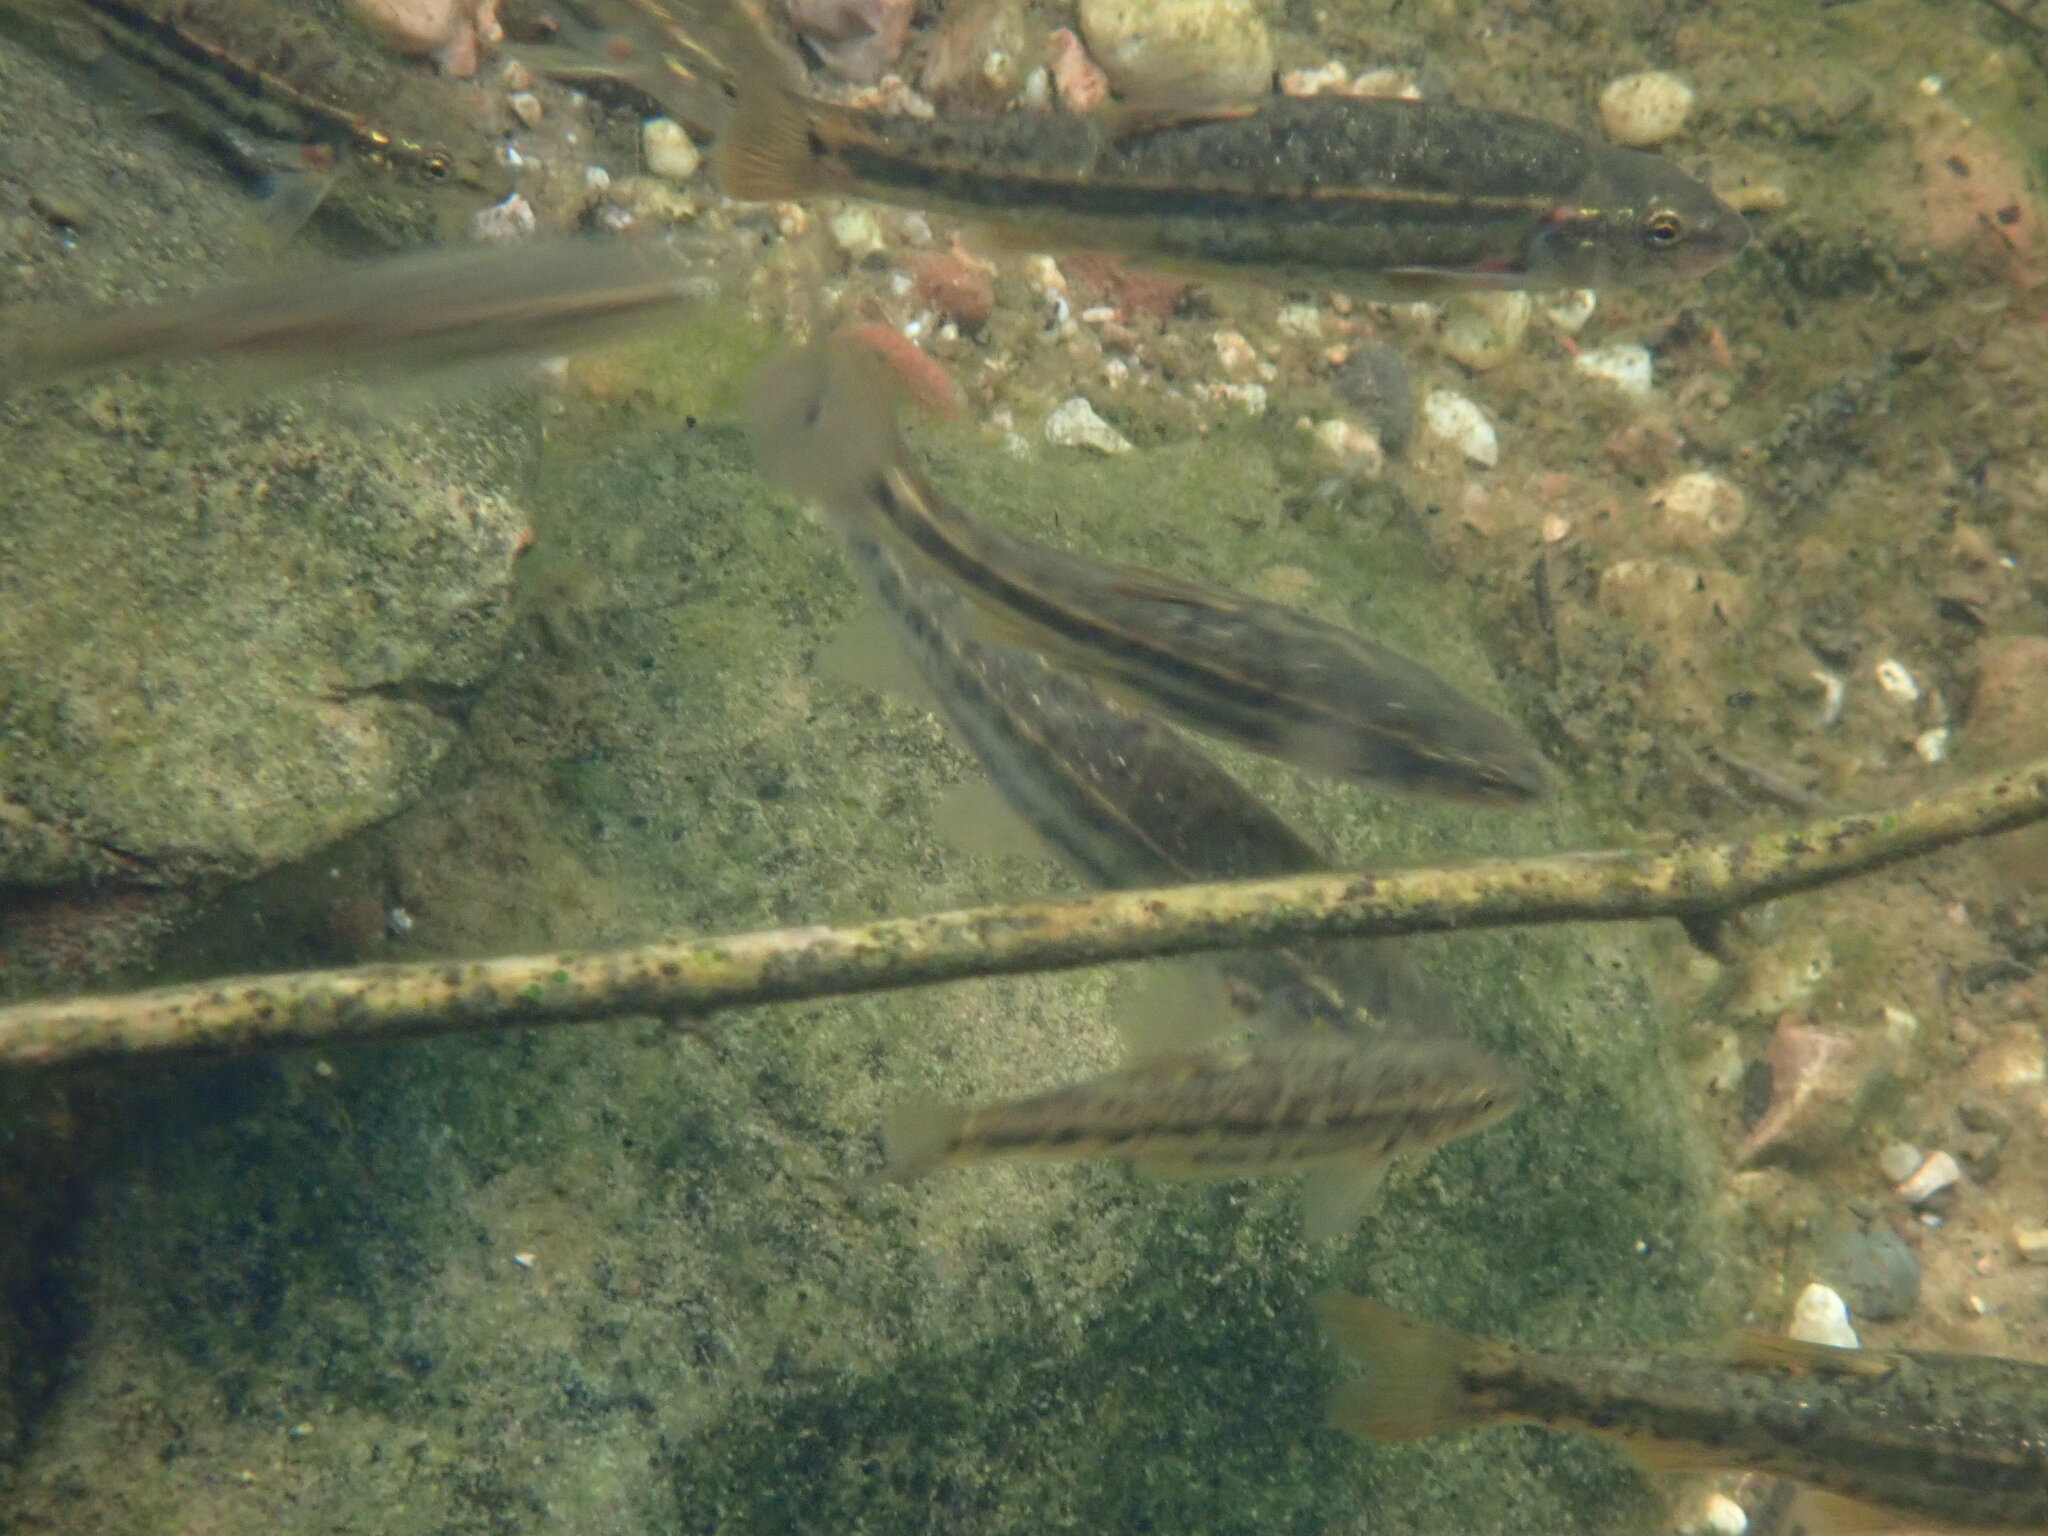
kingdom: Animalia
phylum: Chordata
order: Cypriniformes
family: Cyprinidae
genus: Rhinichthys
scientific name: Rhinichthys osculus
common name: Speckled dace
